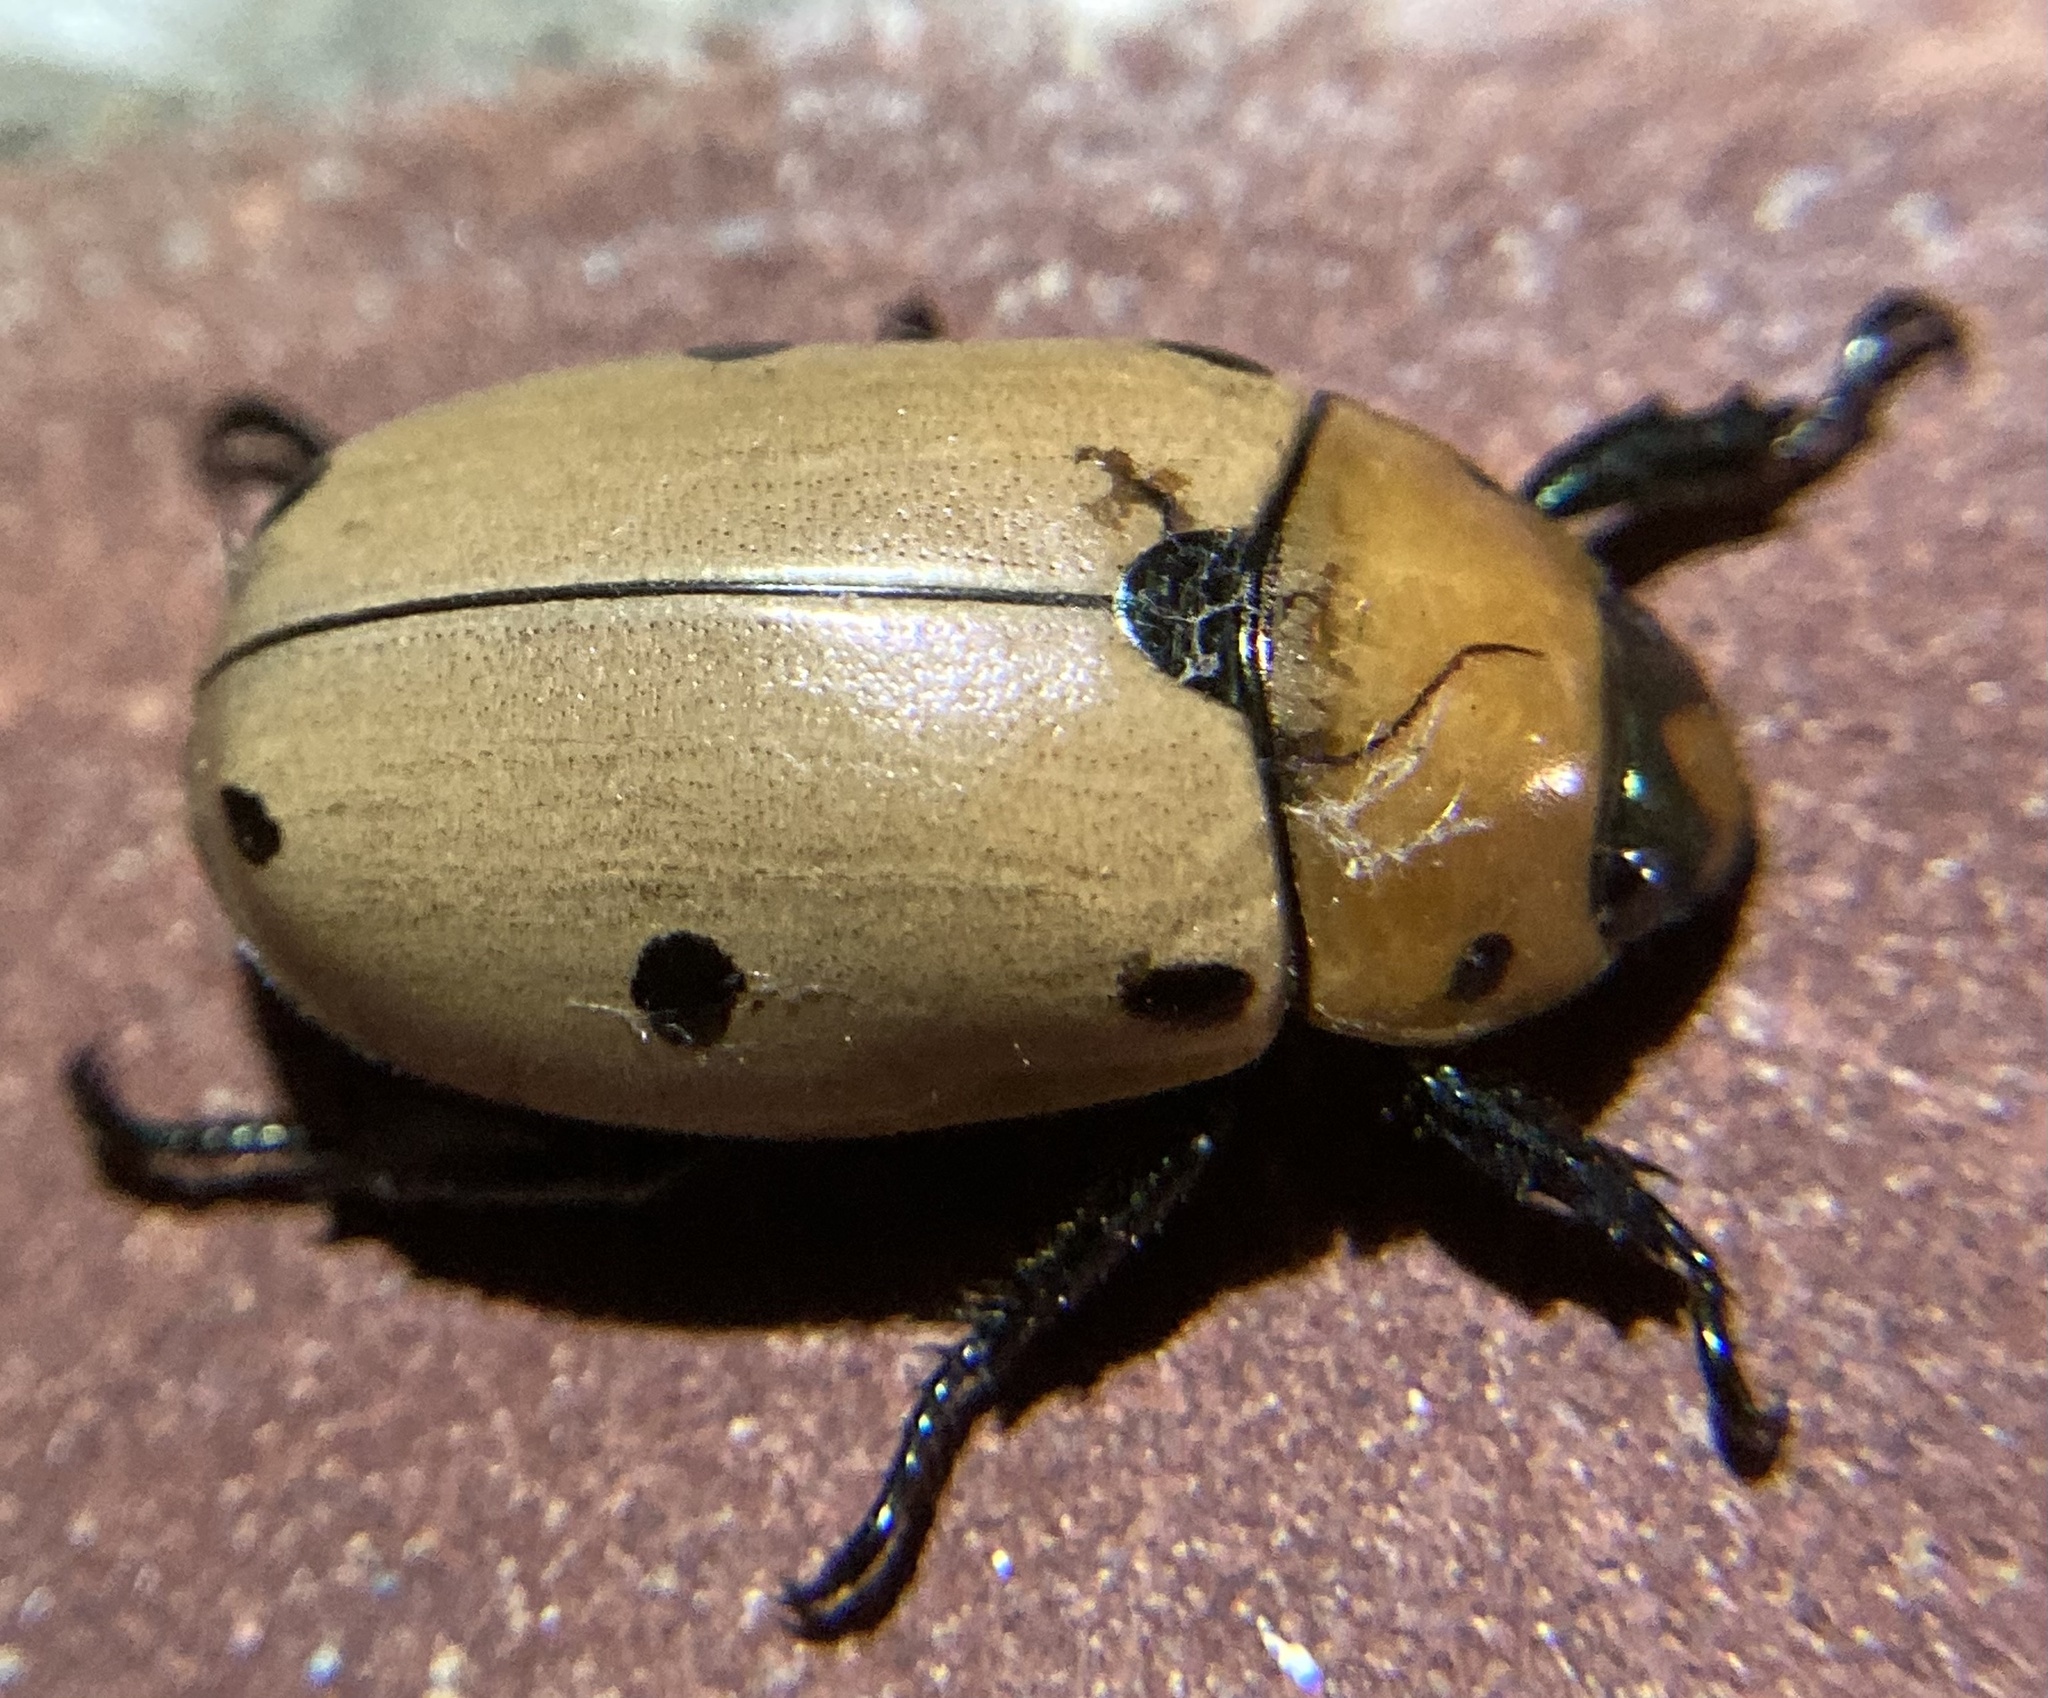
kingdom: Animalia
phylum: Arthropoda
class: Insecta
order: Coleoptera
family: Scarabaeidae
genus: Pelidnota
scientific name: Pelidnota punctata
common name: Grapevine beetle
